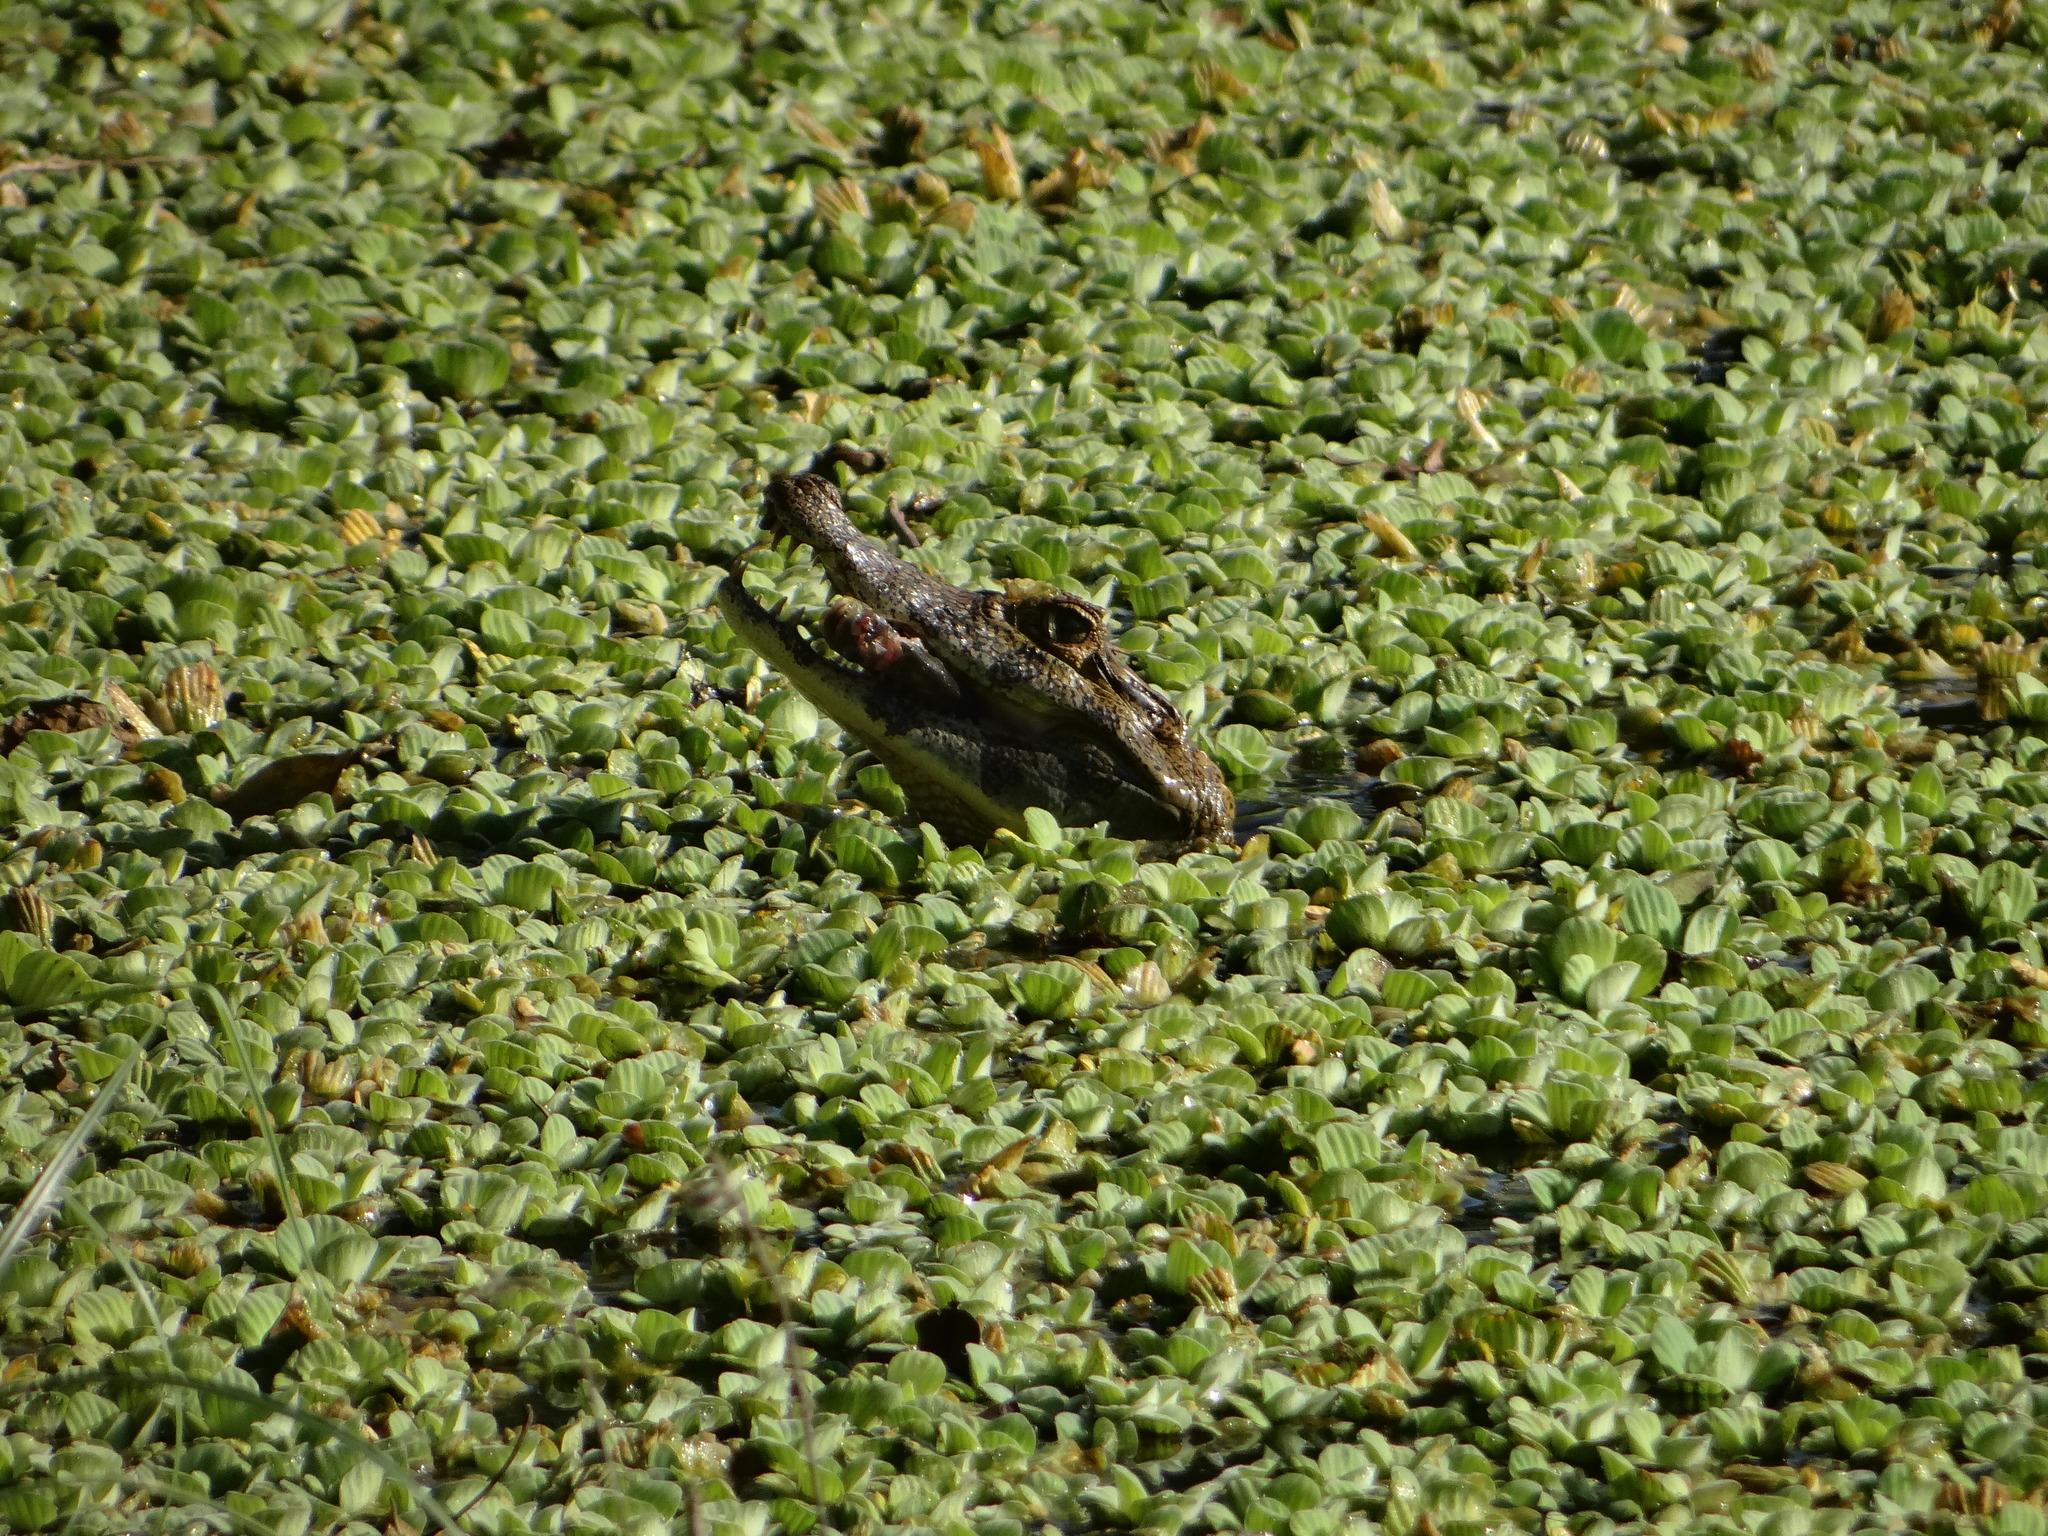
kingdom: Animalia
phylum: Chordata
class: Crocodylia
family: Alligatoridae
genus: Caiman
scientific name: Caiman yacare
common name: Yacare caiman
